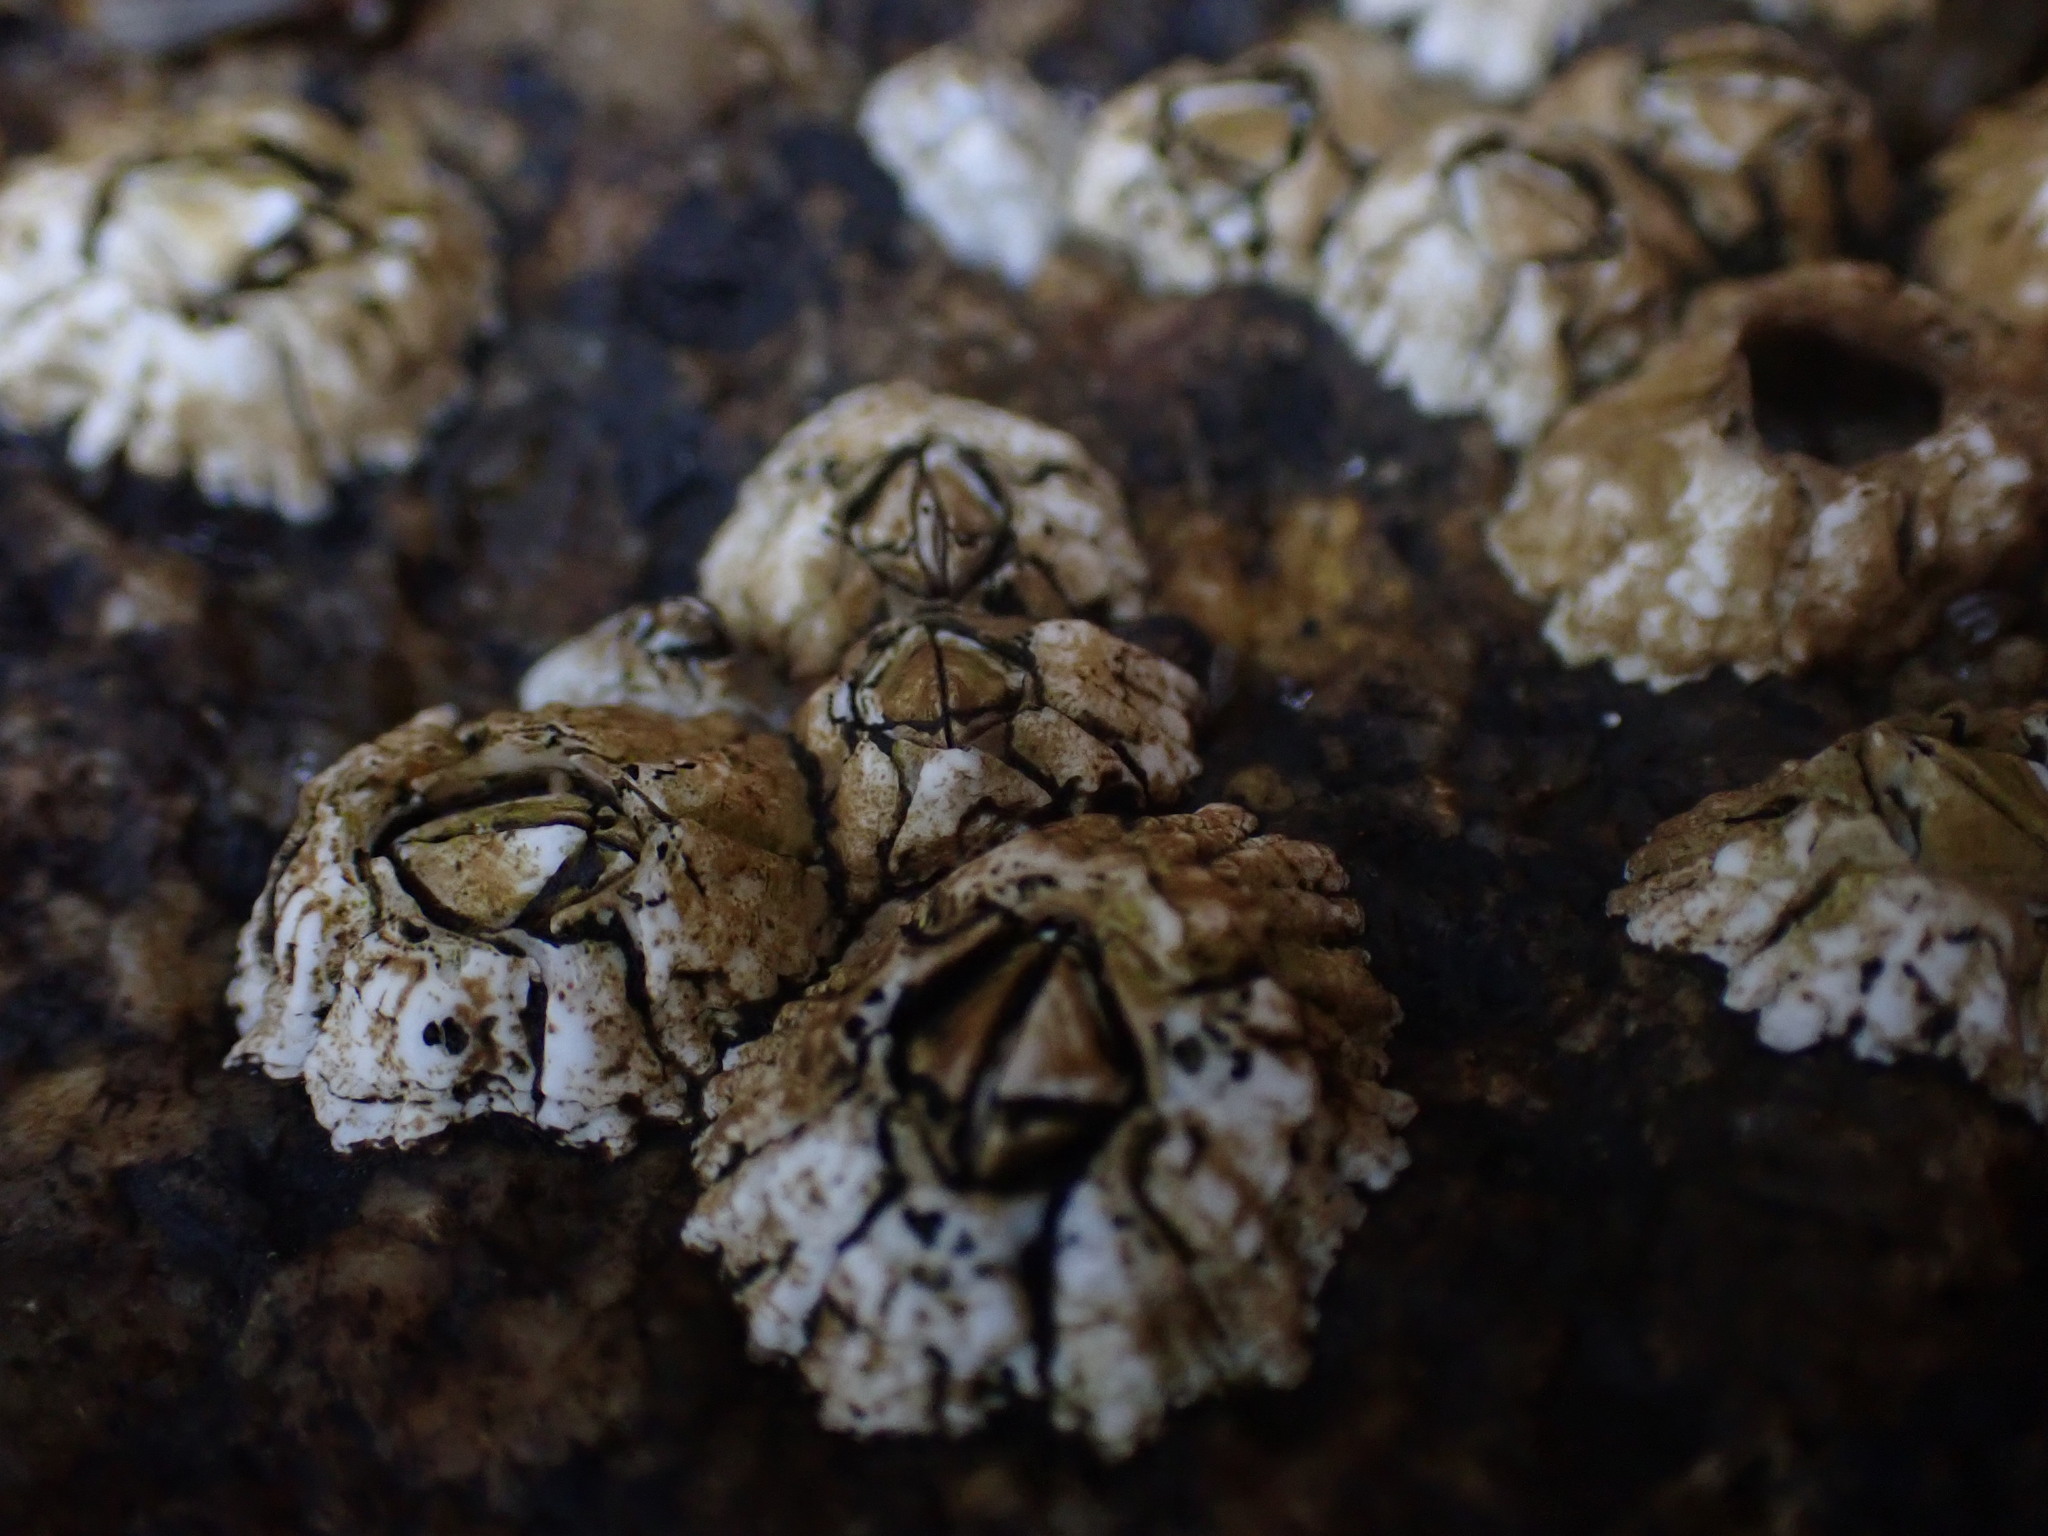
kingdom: Animalia
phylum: Arthropoda
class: Maxillopoda
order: Sessilia
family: Archaeobalanidae
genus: Semibalanus
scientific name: Semibalanus balanoides
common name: Acorn barnacle
